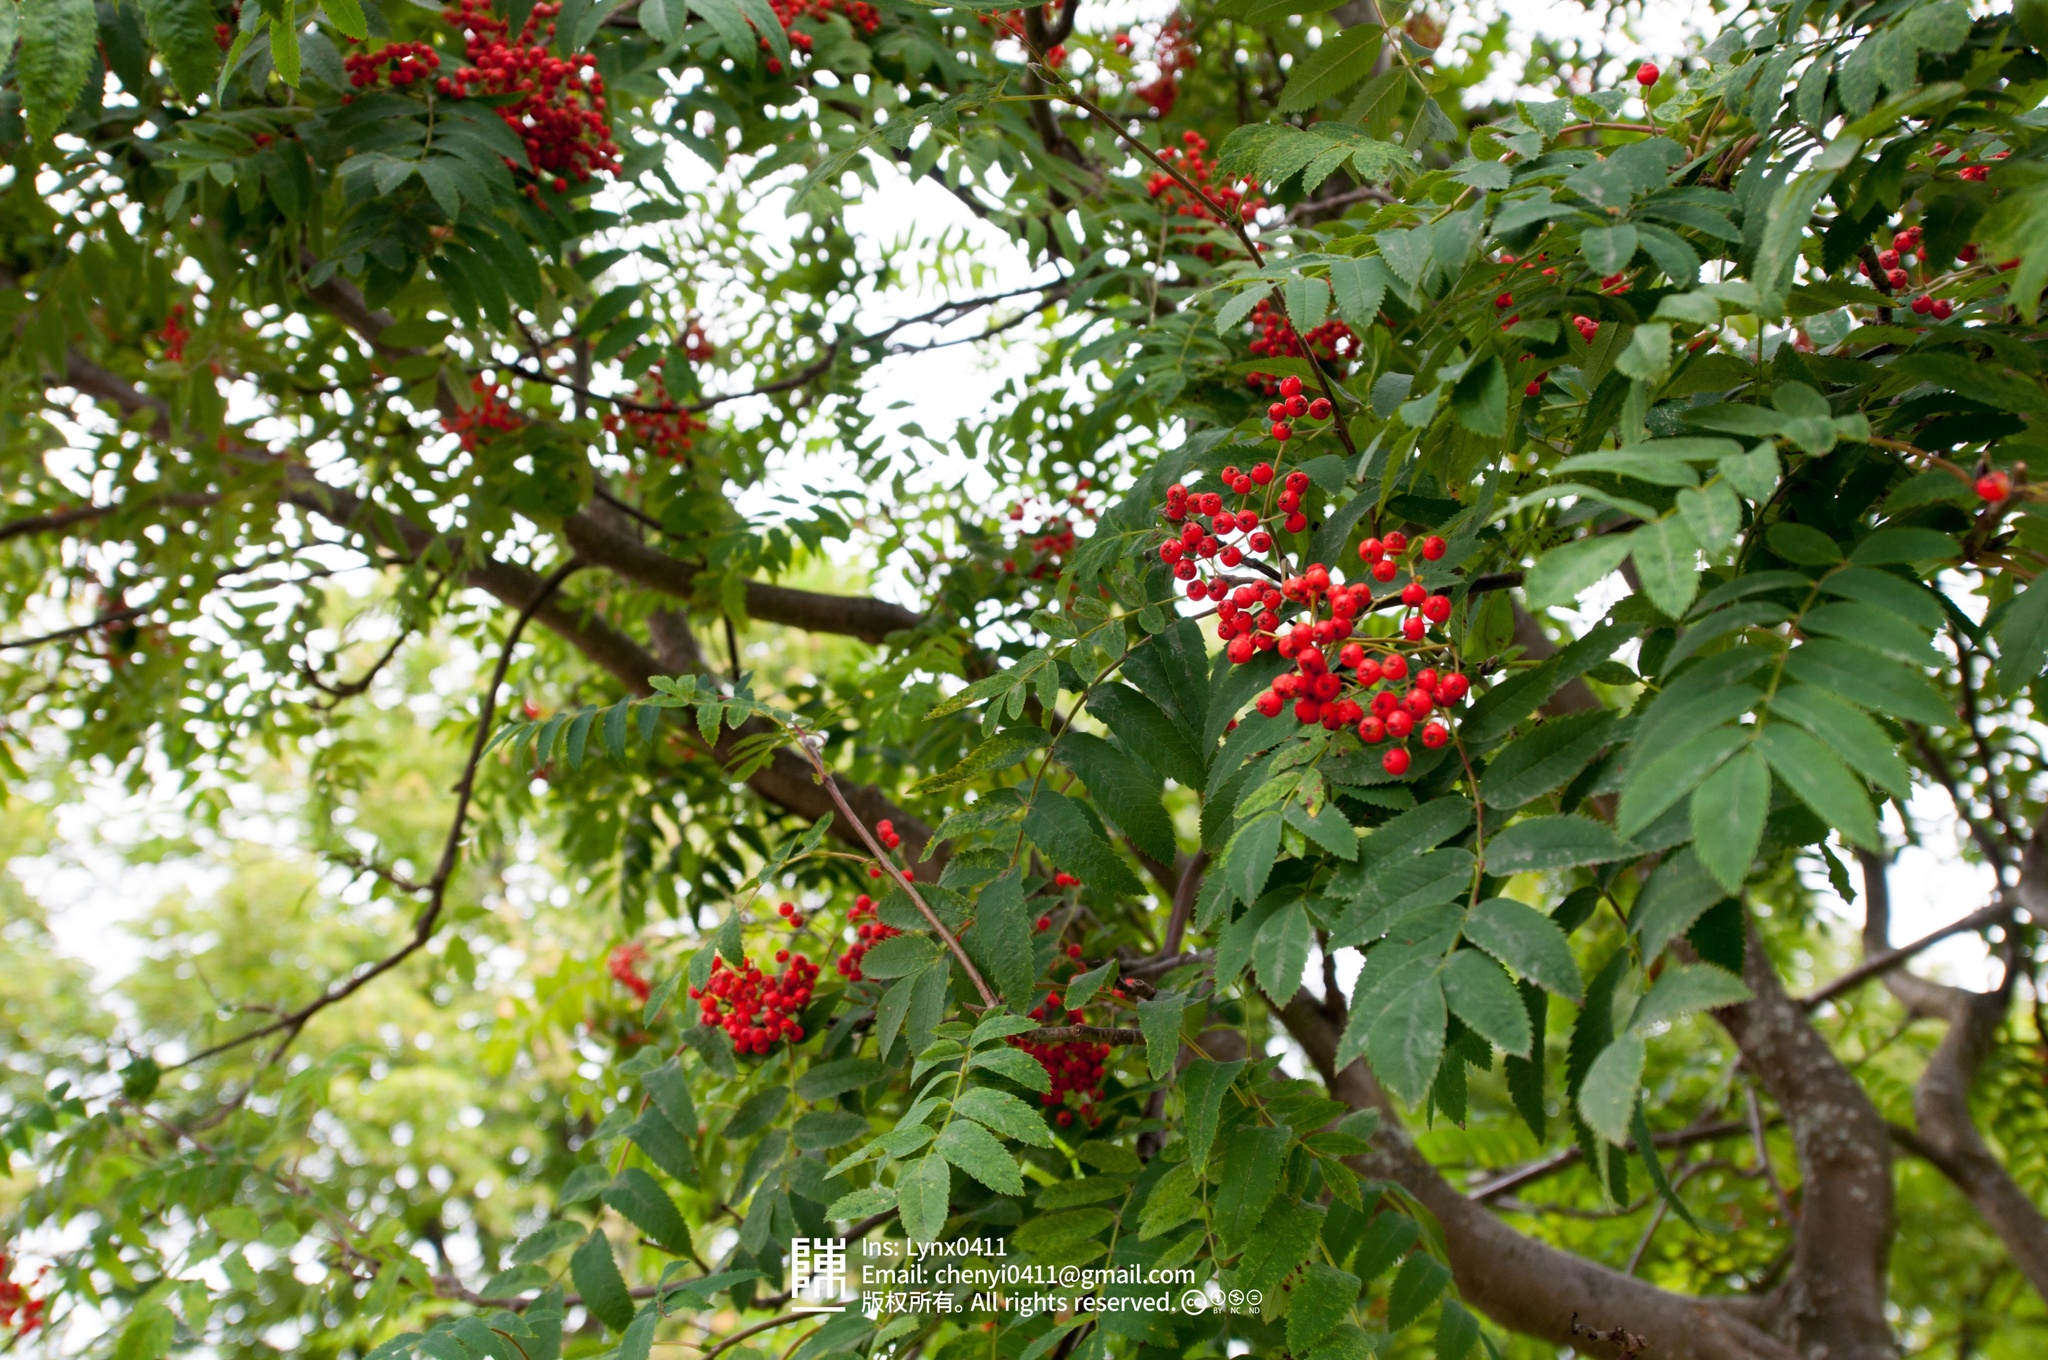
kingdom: Plantae
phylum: Tracheophyta
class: Magnoliopsida
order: Rosales
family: Rosaceae
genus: Sorbus
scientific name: Sorbus aucuparia
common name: Rowan
